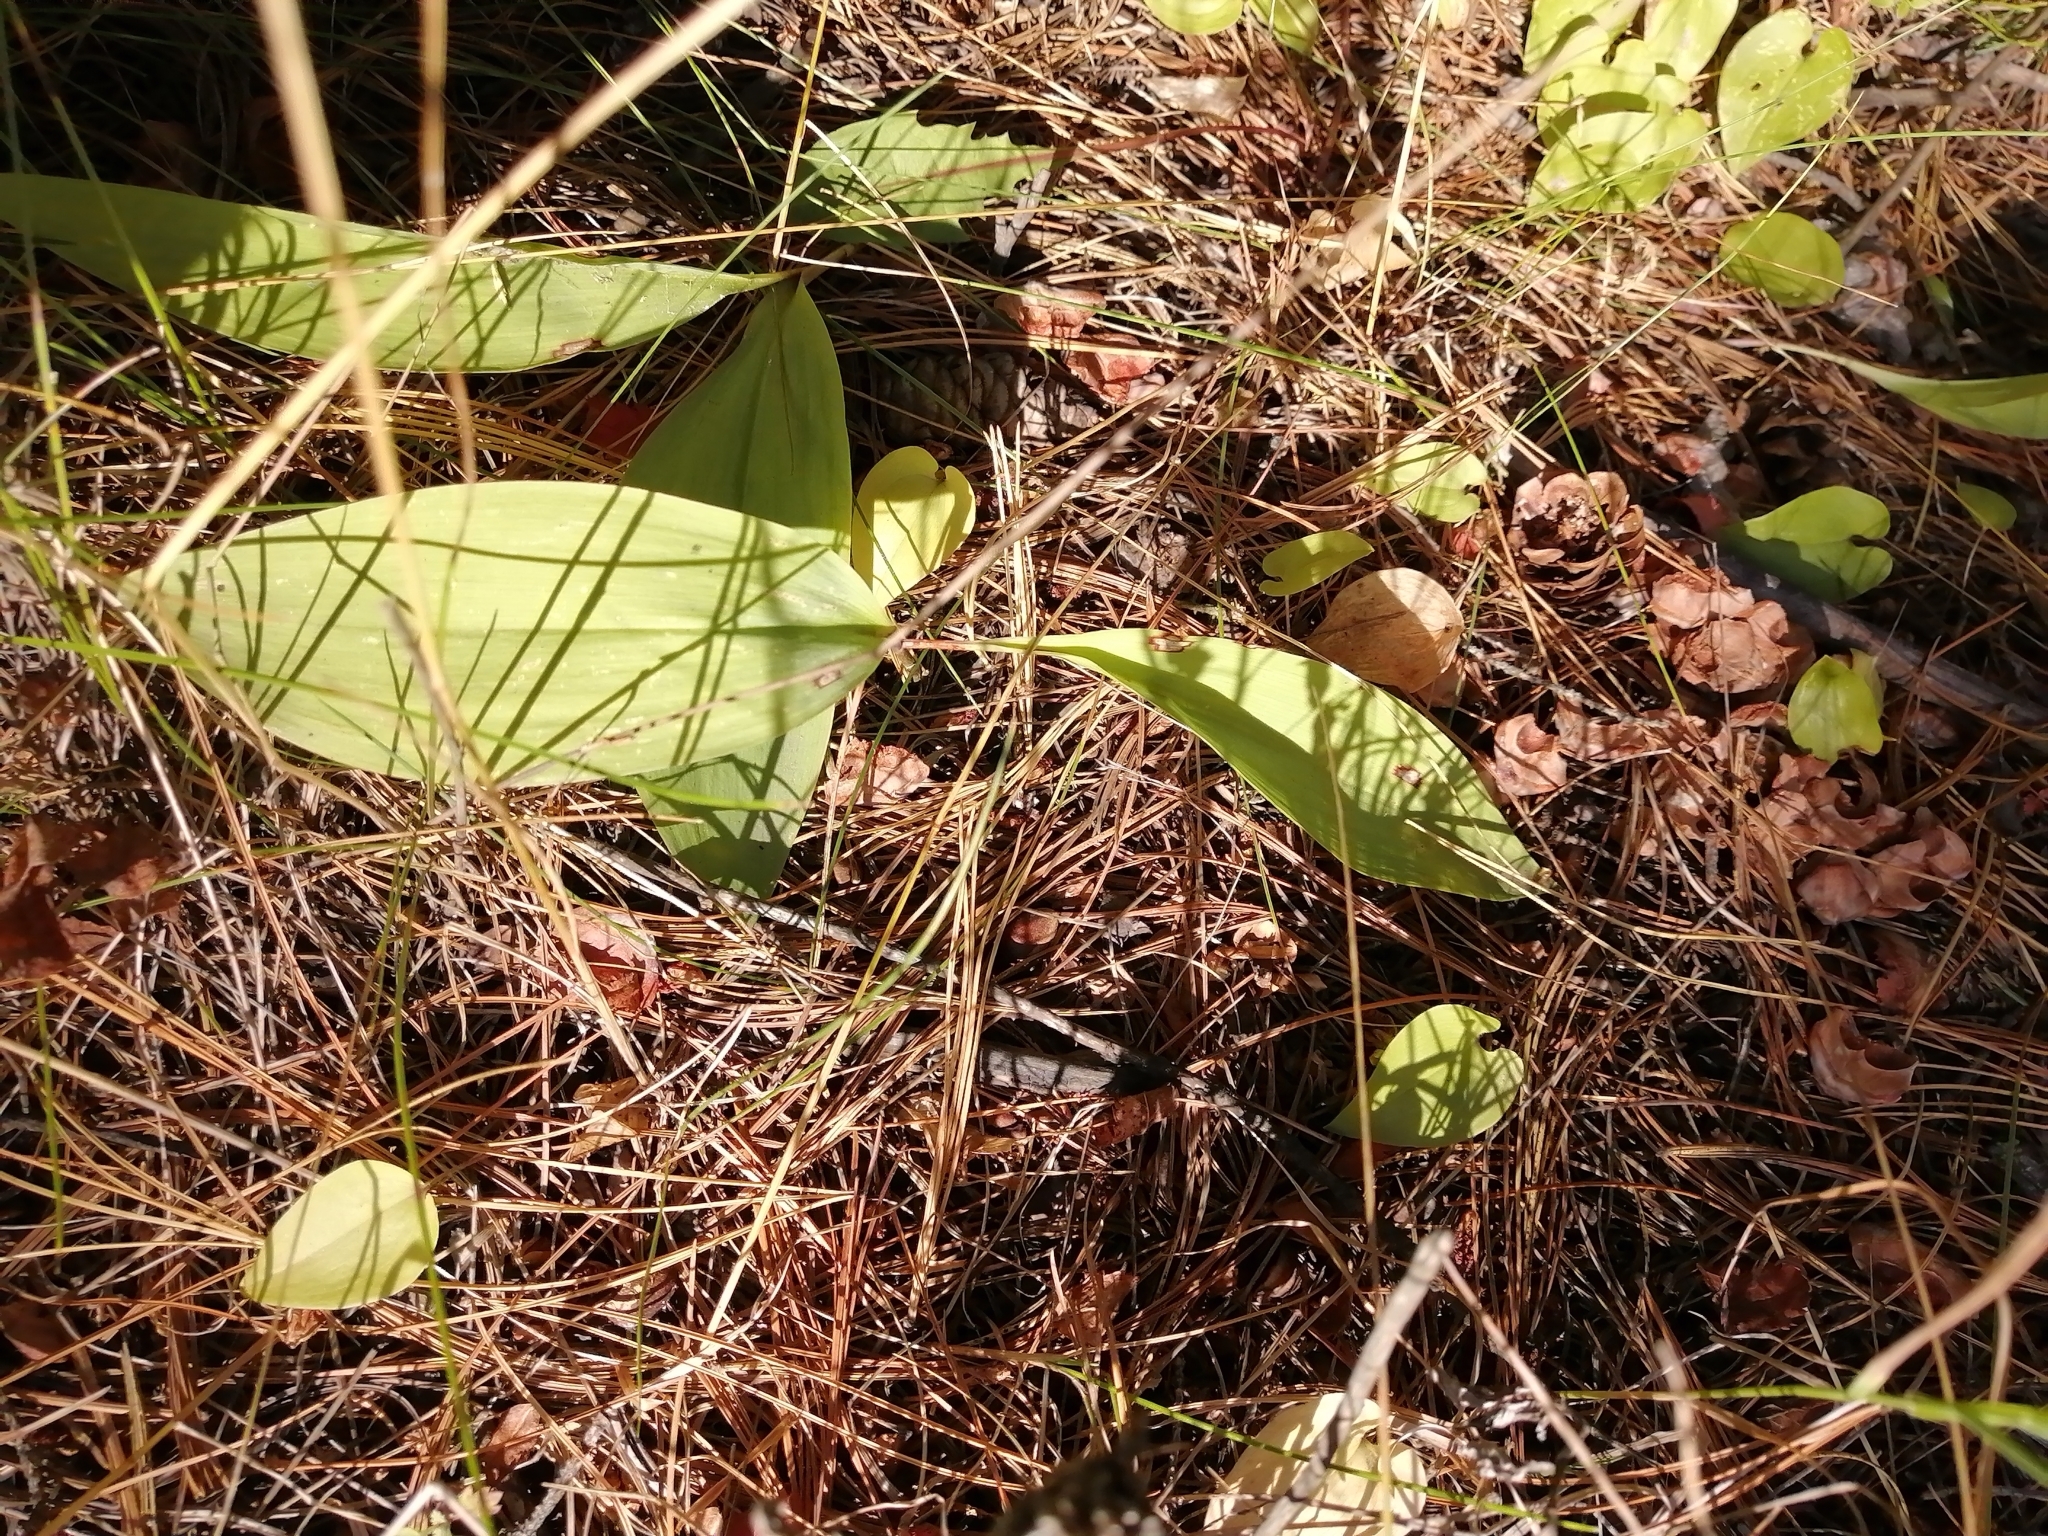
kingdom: Plantae
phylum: Tracheophyta
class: Liliopsida
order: Asparagales
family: Asparagaceae
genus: Convallaria
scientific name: Convallaria majalis
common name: Lily-of-the-valley
